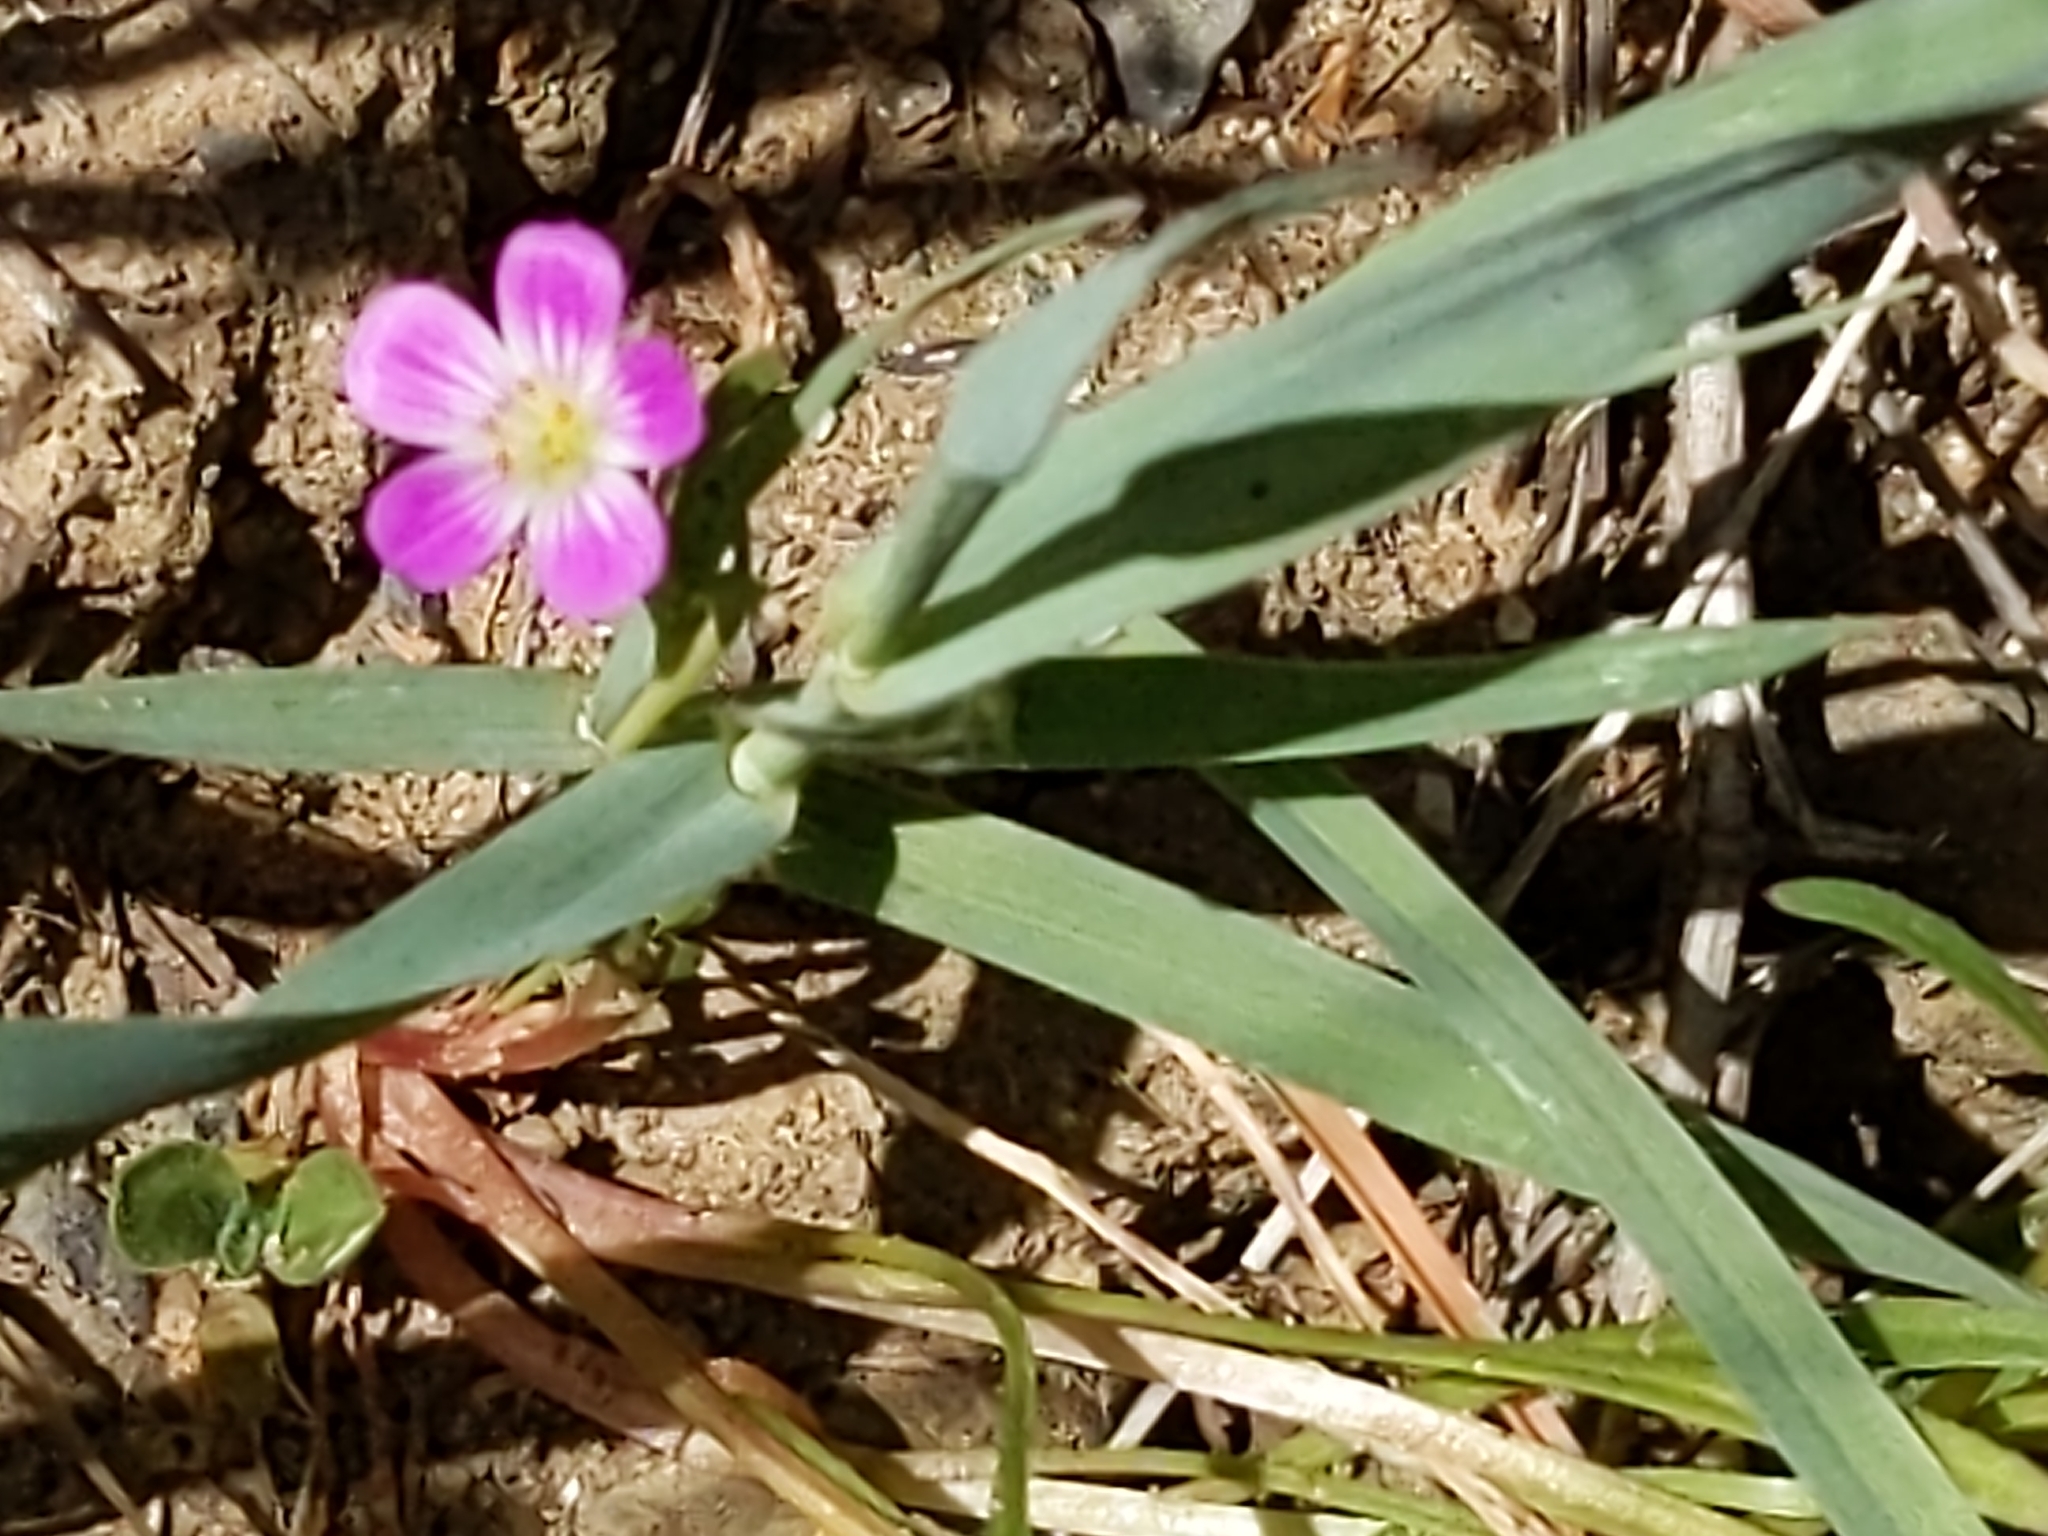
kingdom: Plantae
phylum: Tracheophyta
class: Magnoliopsida
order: Caryophyllales
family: Montiaceae
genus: Calandrinia
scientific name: Calandrinia menziesii
